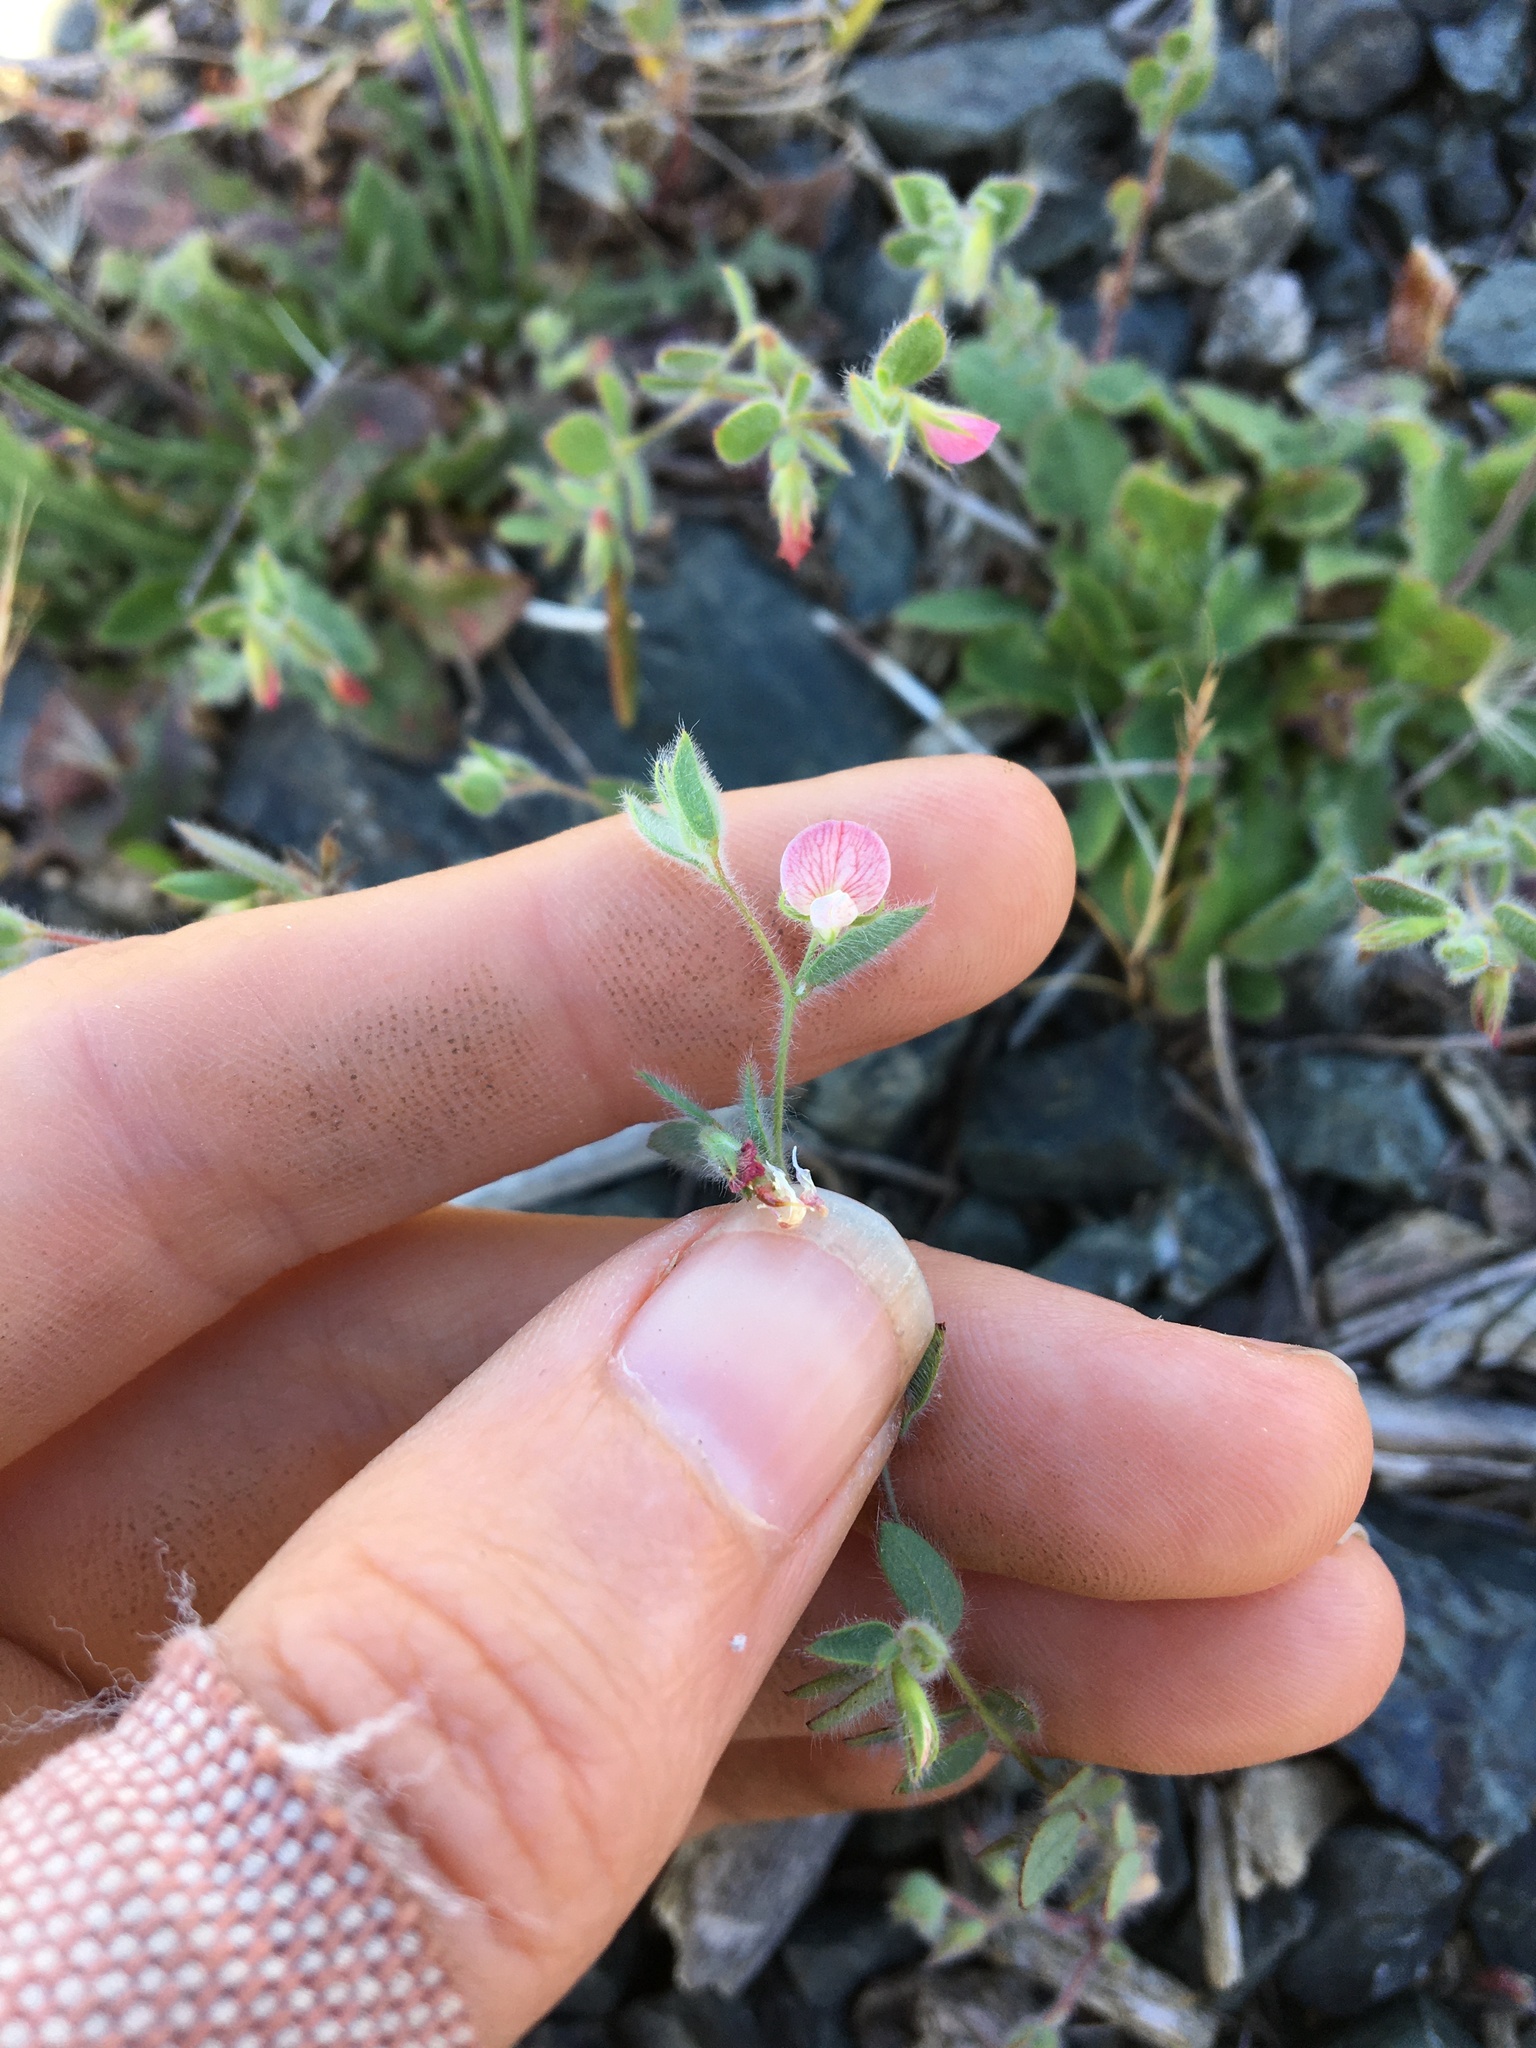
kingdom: Plantae
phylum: Tracheophyta
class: Magnoliopsida
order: Fabales
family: Fabaceae
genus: Acmispon
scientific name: Acmispon americanus
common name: American bird's-foot trefoil
